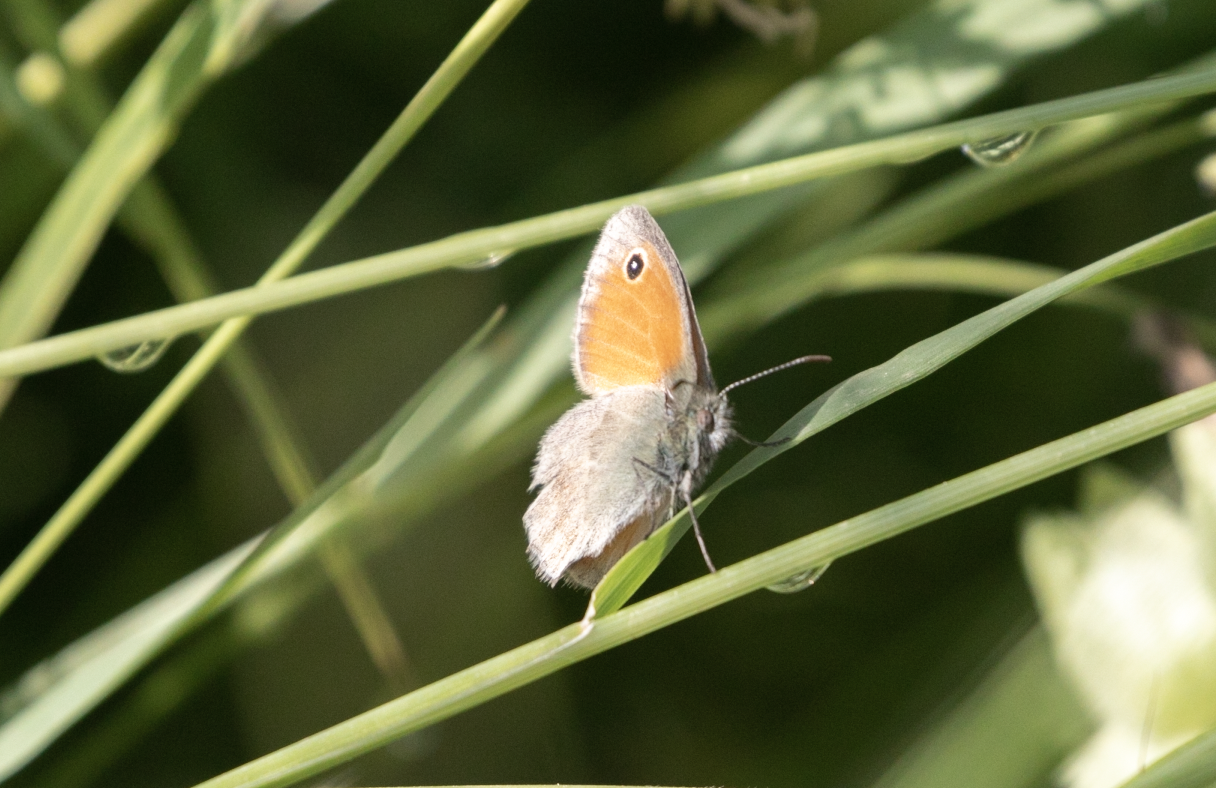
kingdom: Animalia
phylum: Arthropoda
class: Insecta
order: Lepidoptera
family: Nymphalidae
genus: Coenonympha
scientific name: Coenonympha pamphilus
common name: Small heath
